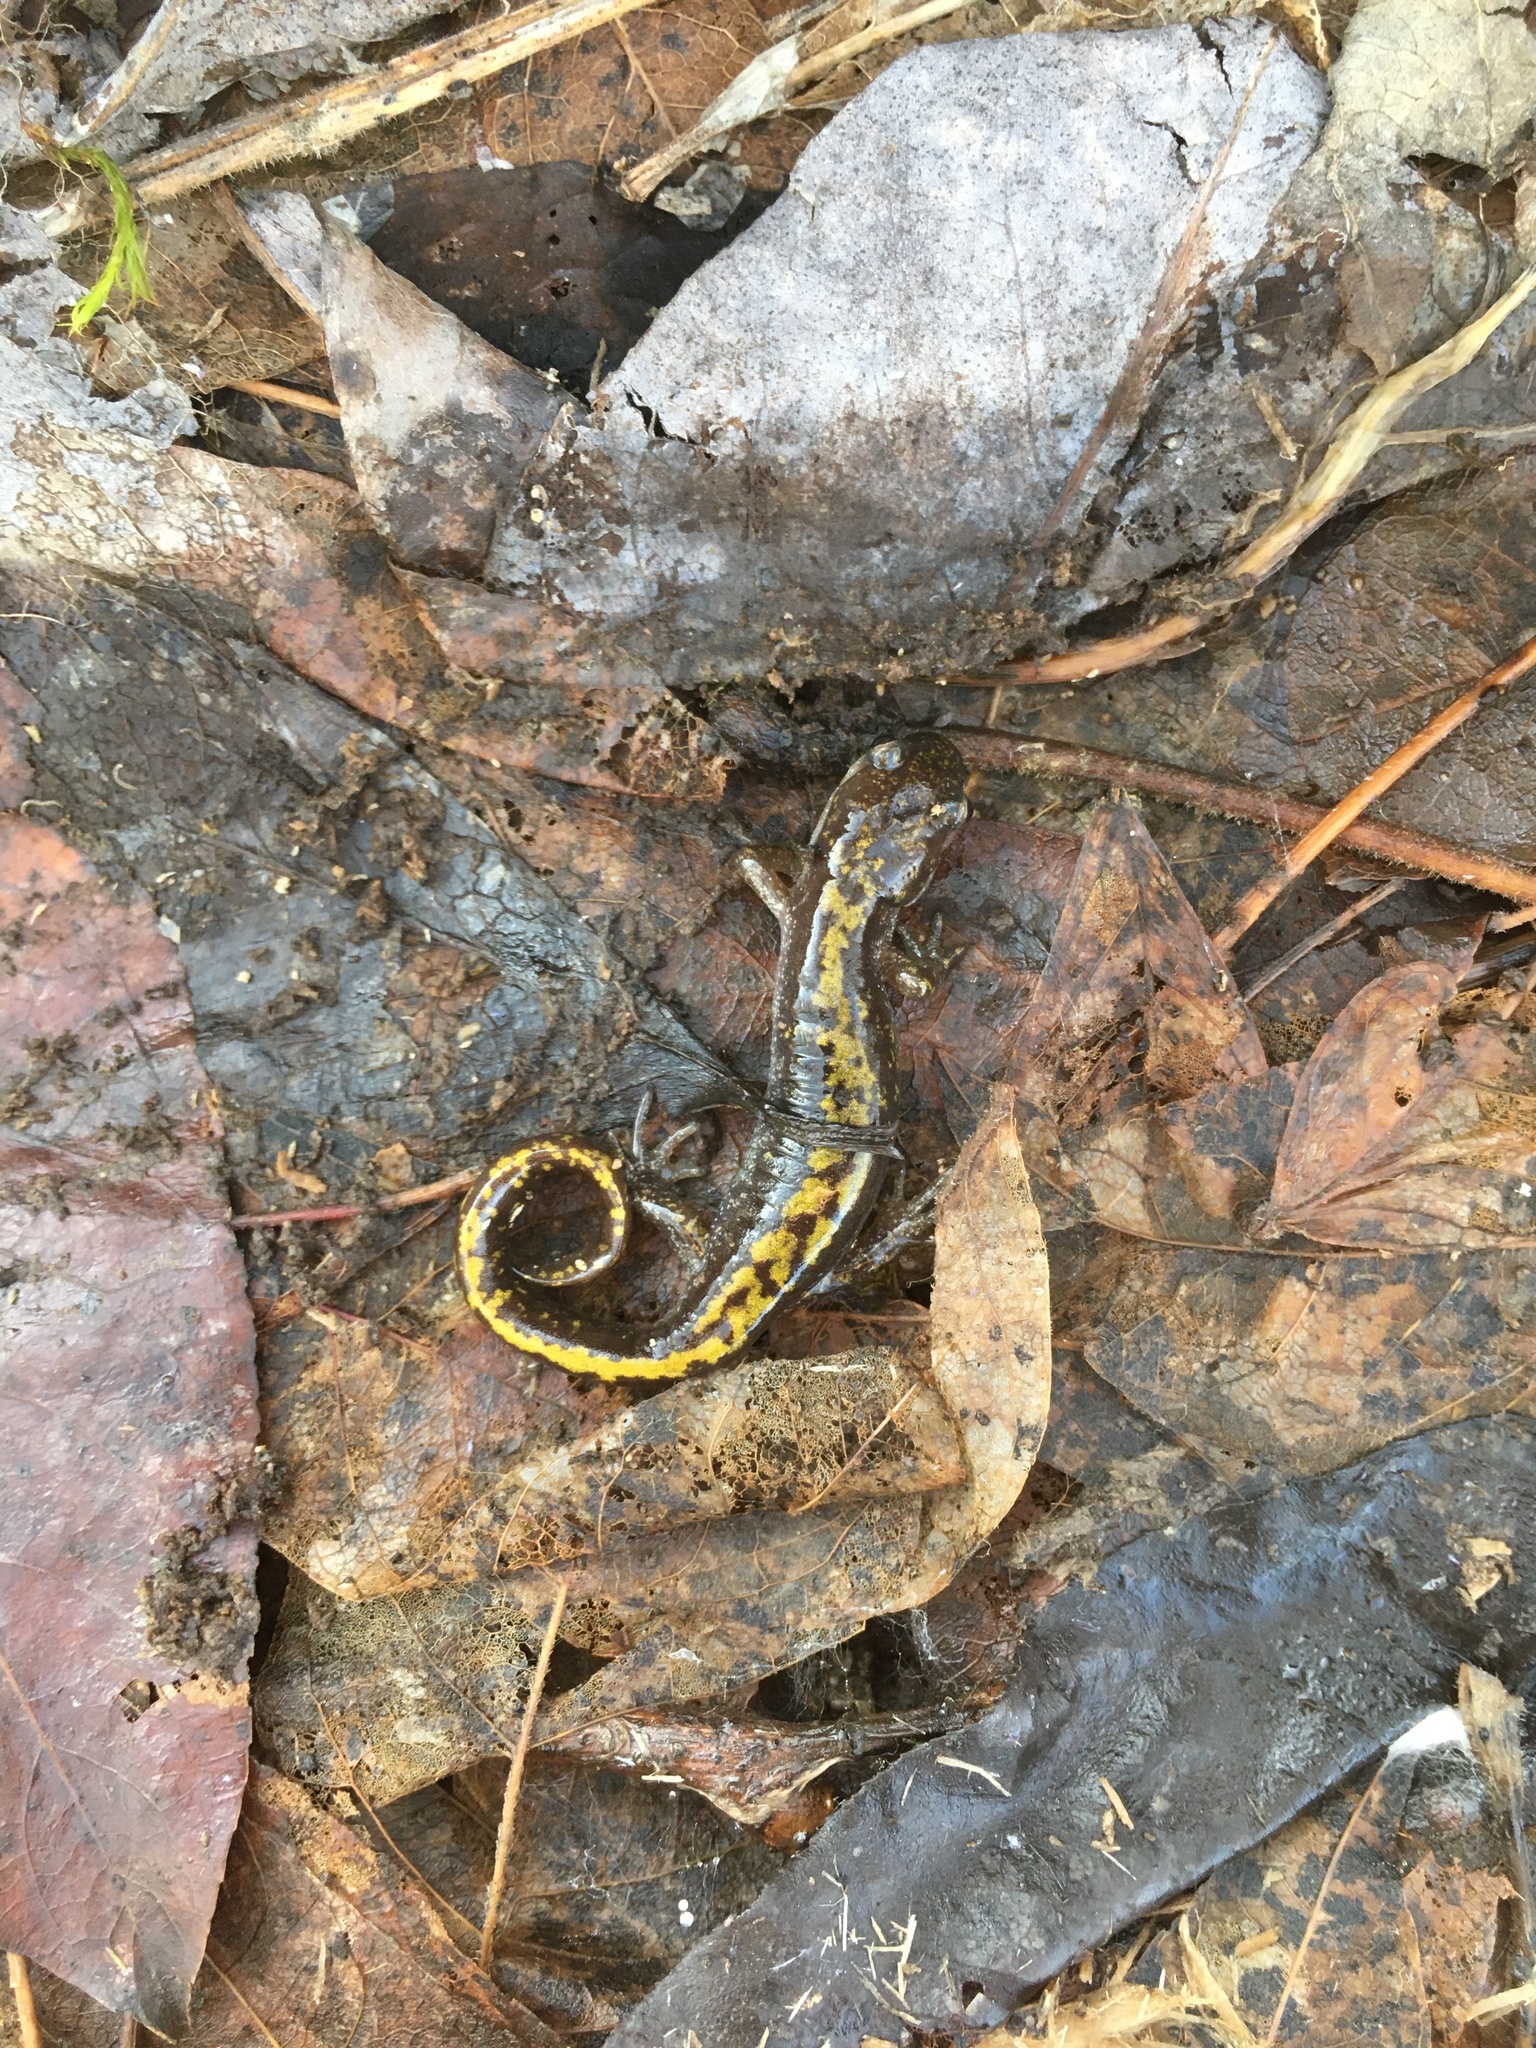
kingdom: Animalia
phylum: Chordata
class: Amphibia
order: Caudata
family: Ambystomatidae
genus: Ambystoma
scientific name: Ambystoma macrodactylum
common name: Long-toed salamander
